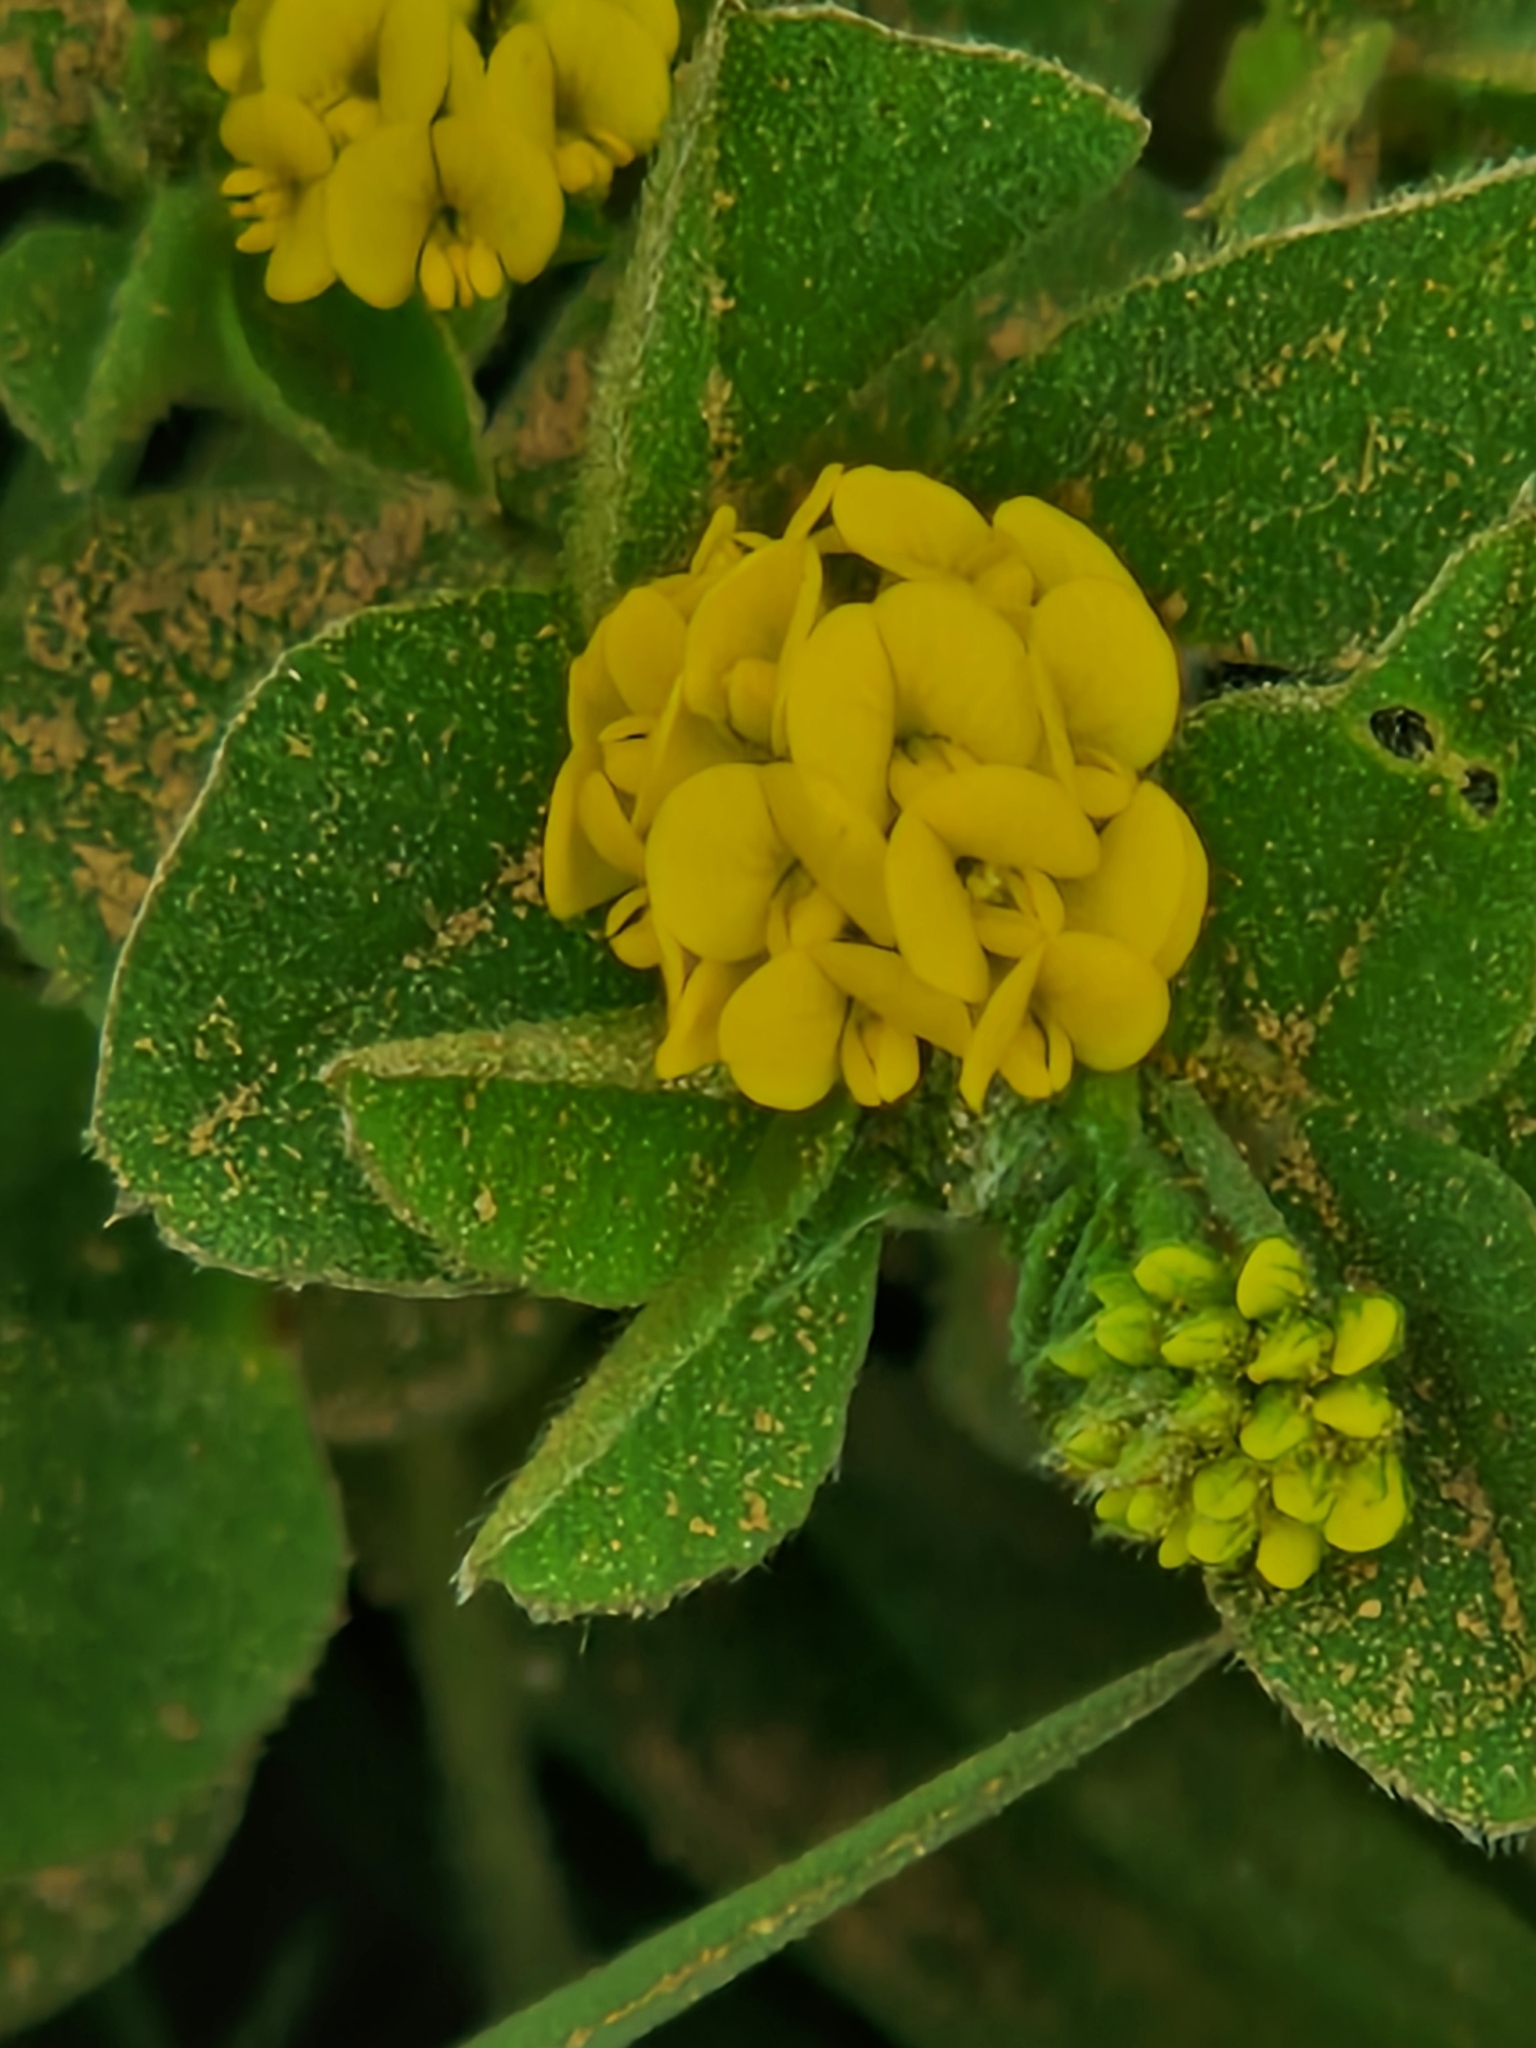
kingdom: Plantae
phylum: Tracheophyta
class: Magnoliopsida
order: Fabales
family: Fabaceae
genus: Medicago
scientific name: Medicago lupulina
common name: Black medick
